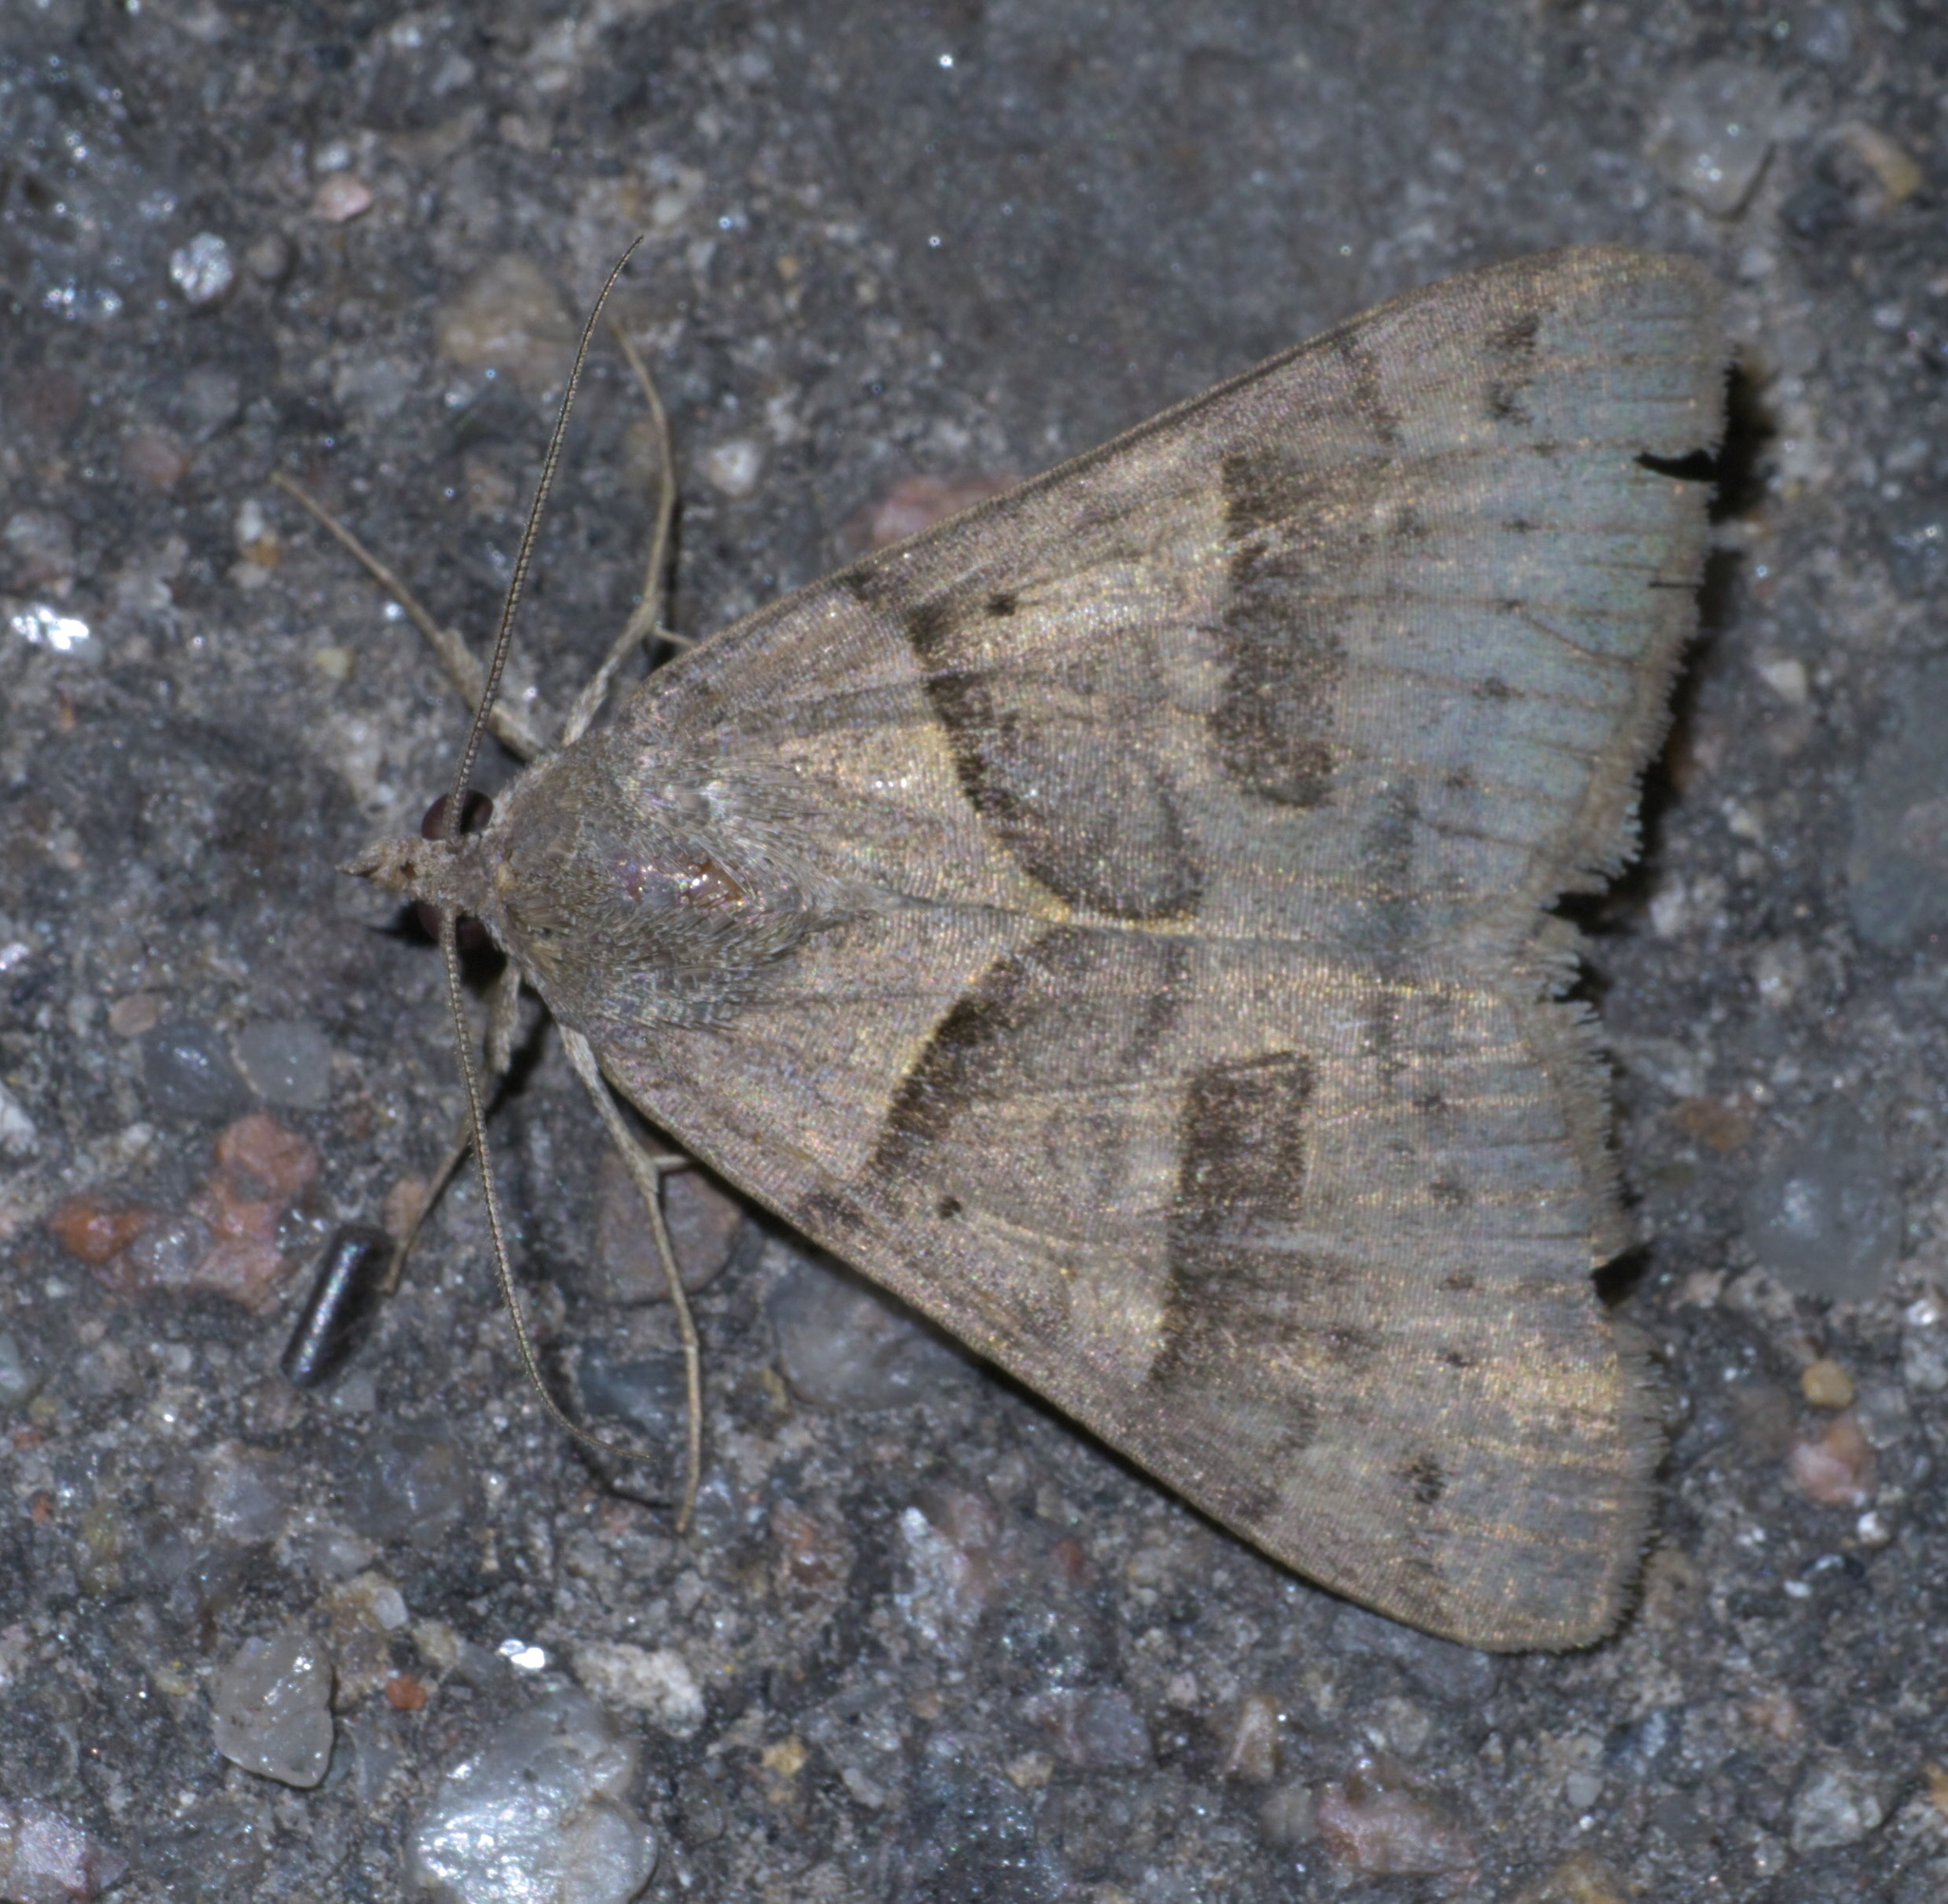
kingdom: Animalia
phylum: Arthropoda
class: Insecta
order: Lepidoptera
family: Erebidae
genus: Caenurgina
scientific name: Caenurgina erechtea
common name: Forage looper moth
